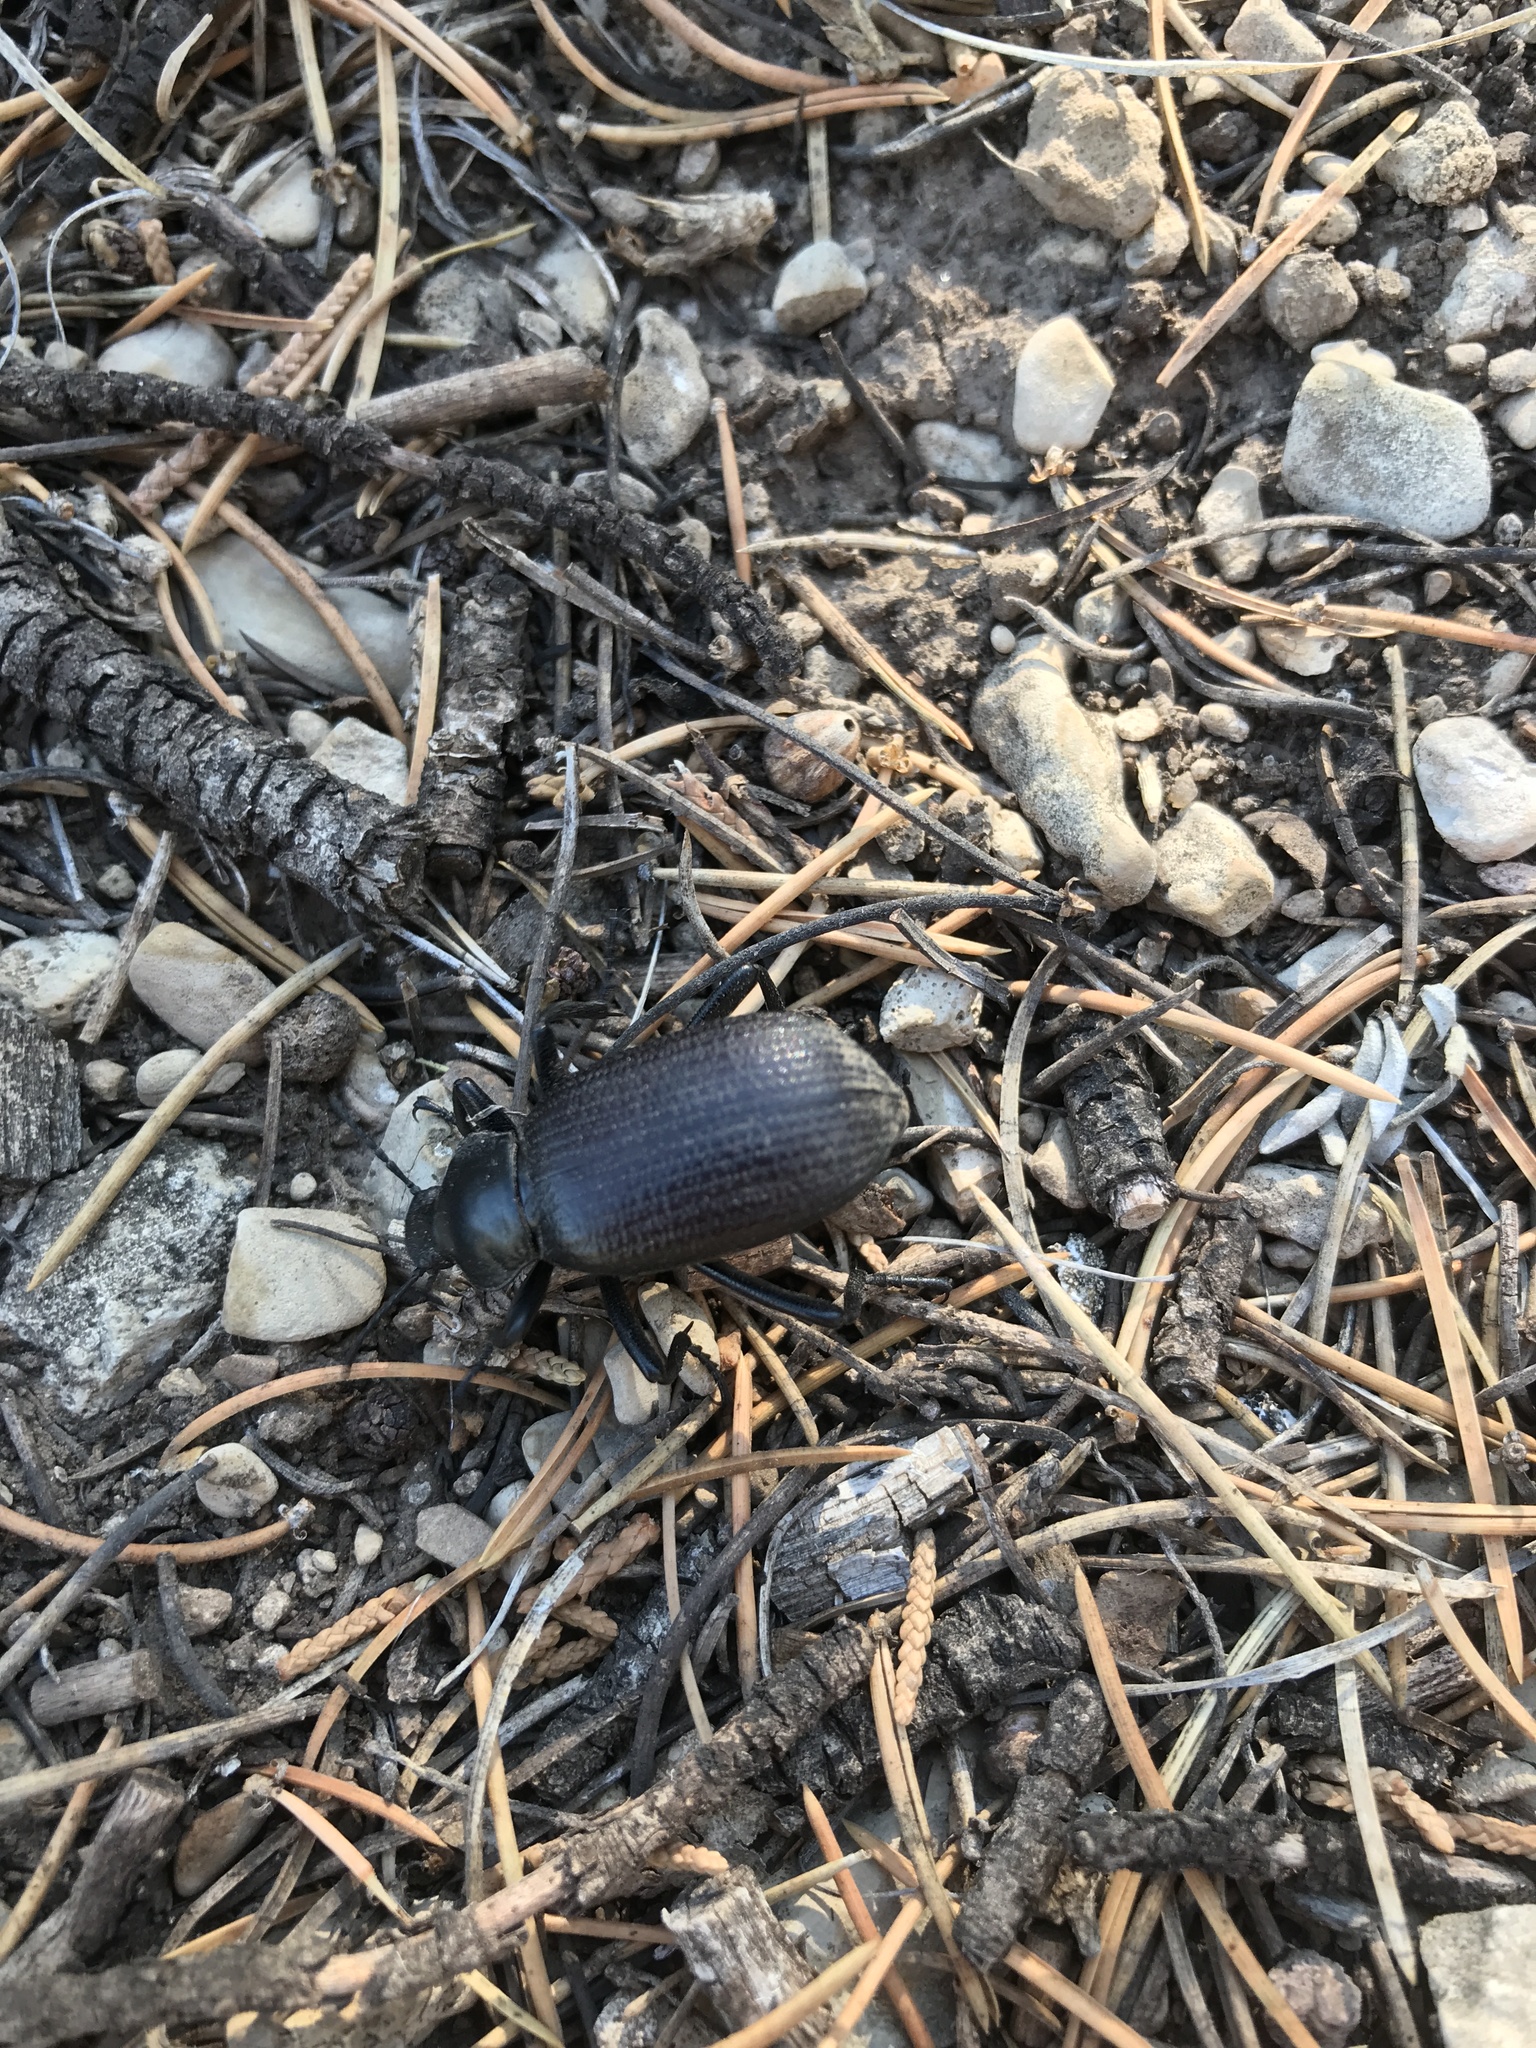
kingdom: Animalia
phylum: Arthropoda
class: Insecta
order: Coleoptera
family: Tenebrionidae
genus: Eleodes
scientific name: Eleodes obscura
